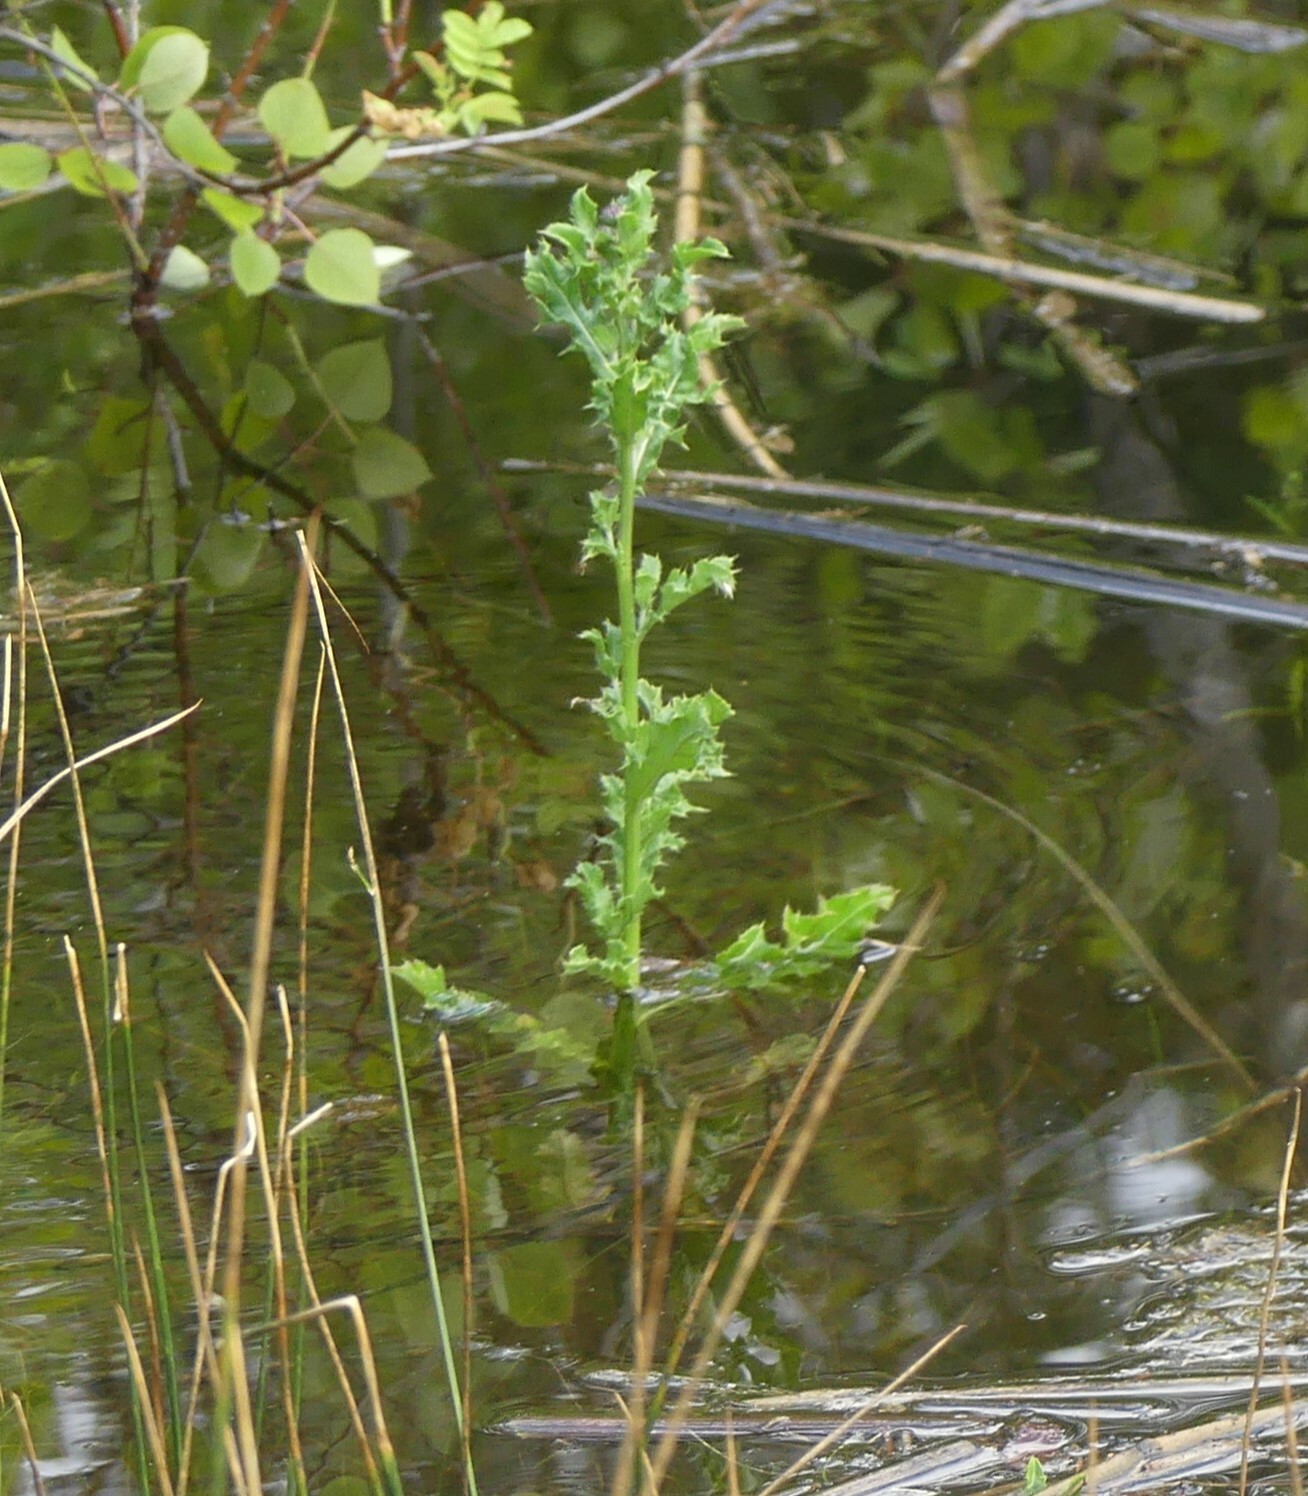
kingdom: Plantae
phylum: Tracheophyta
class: Magnoliopsida
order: Asterales
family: Asteraceae
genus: Cirsium
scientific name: Cirsium arvense
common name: Creeping thistle
